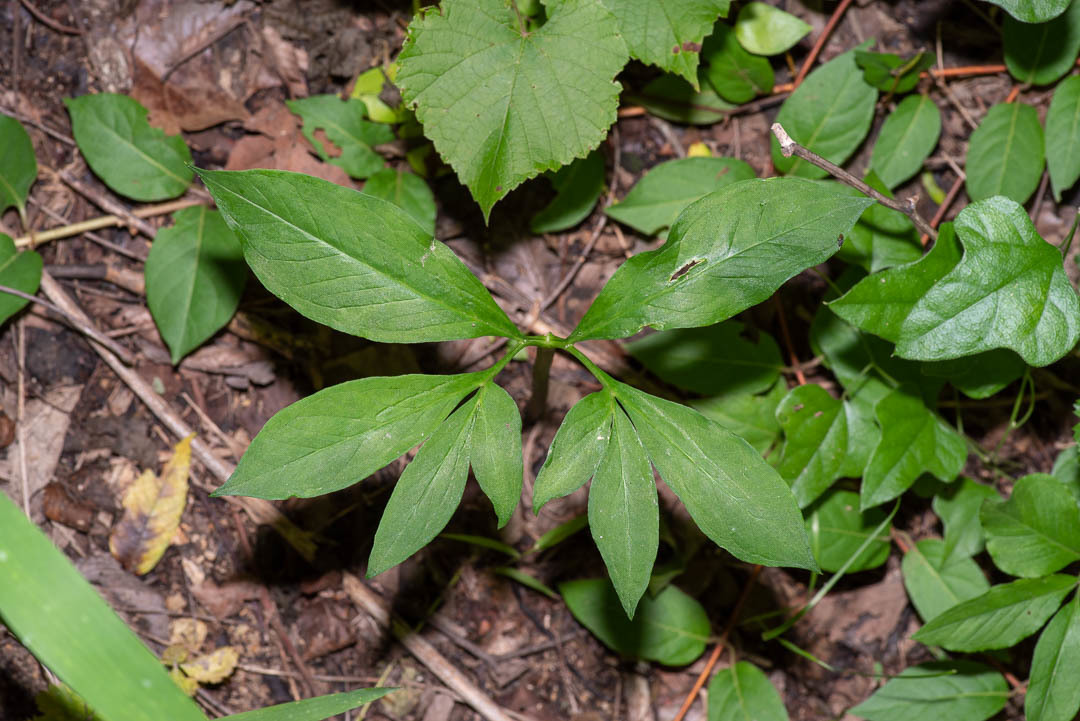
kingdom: Plantae
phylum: Tracheophyta
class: Liliopsida
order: Alismatales
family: Araceae
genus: Arisaema
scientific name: Arisaema dracontium
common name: Dragon-arum
